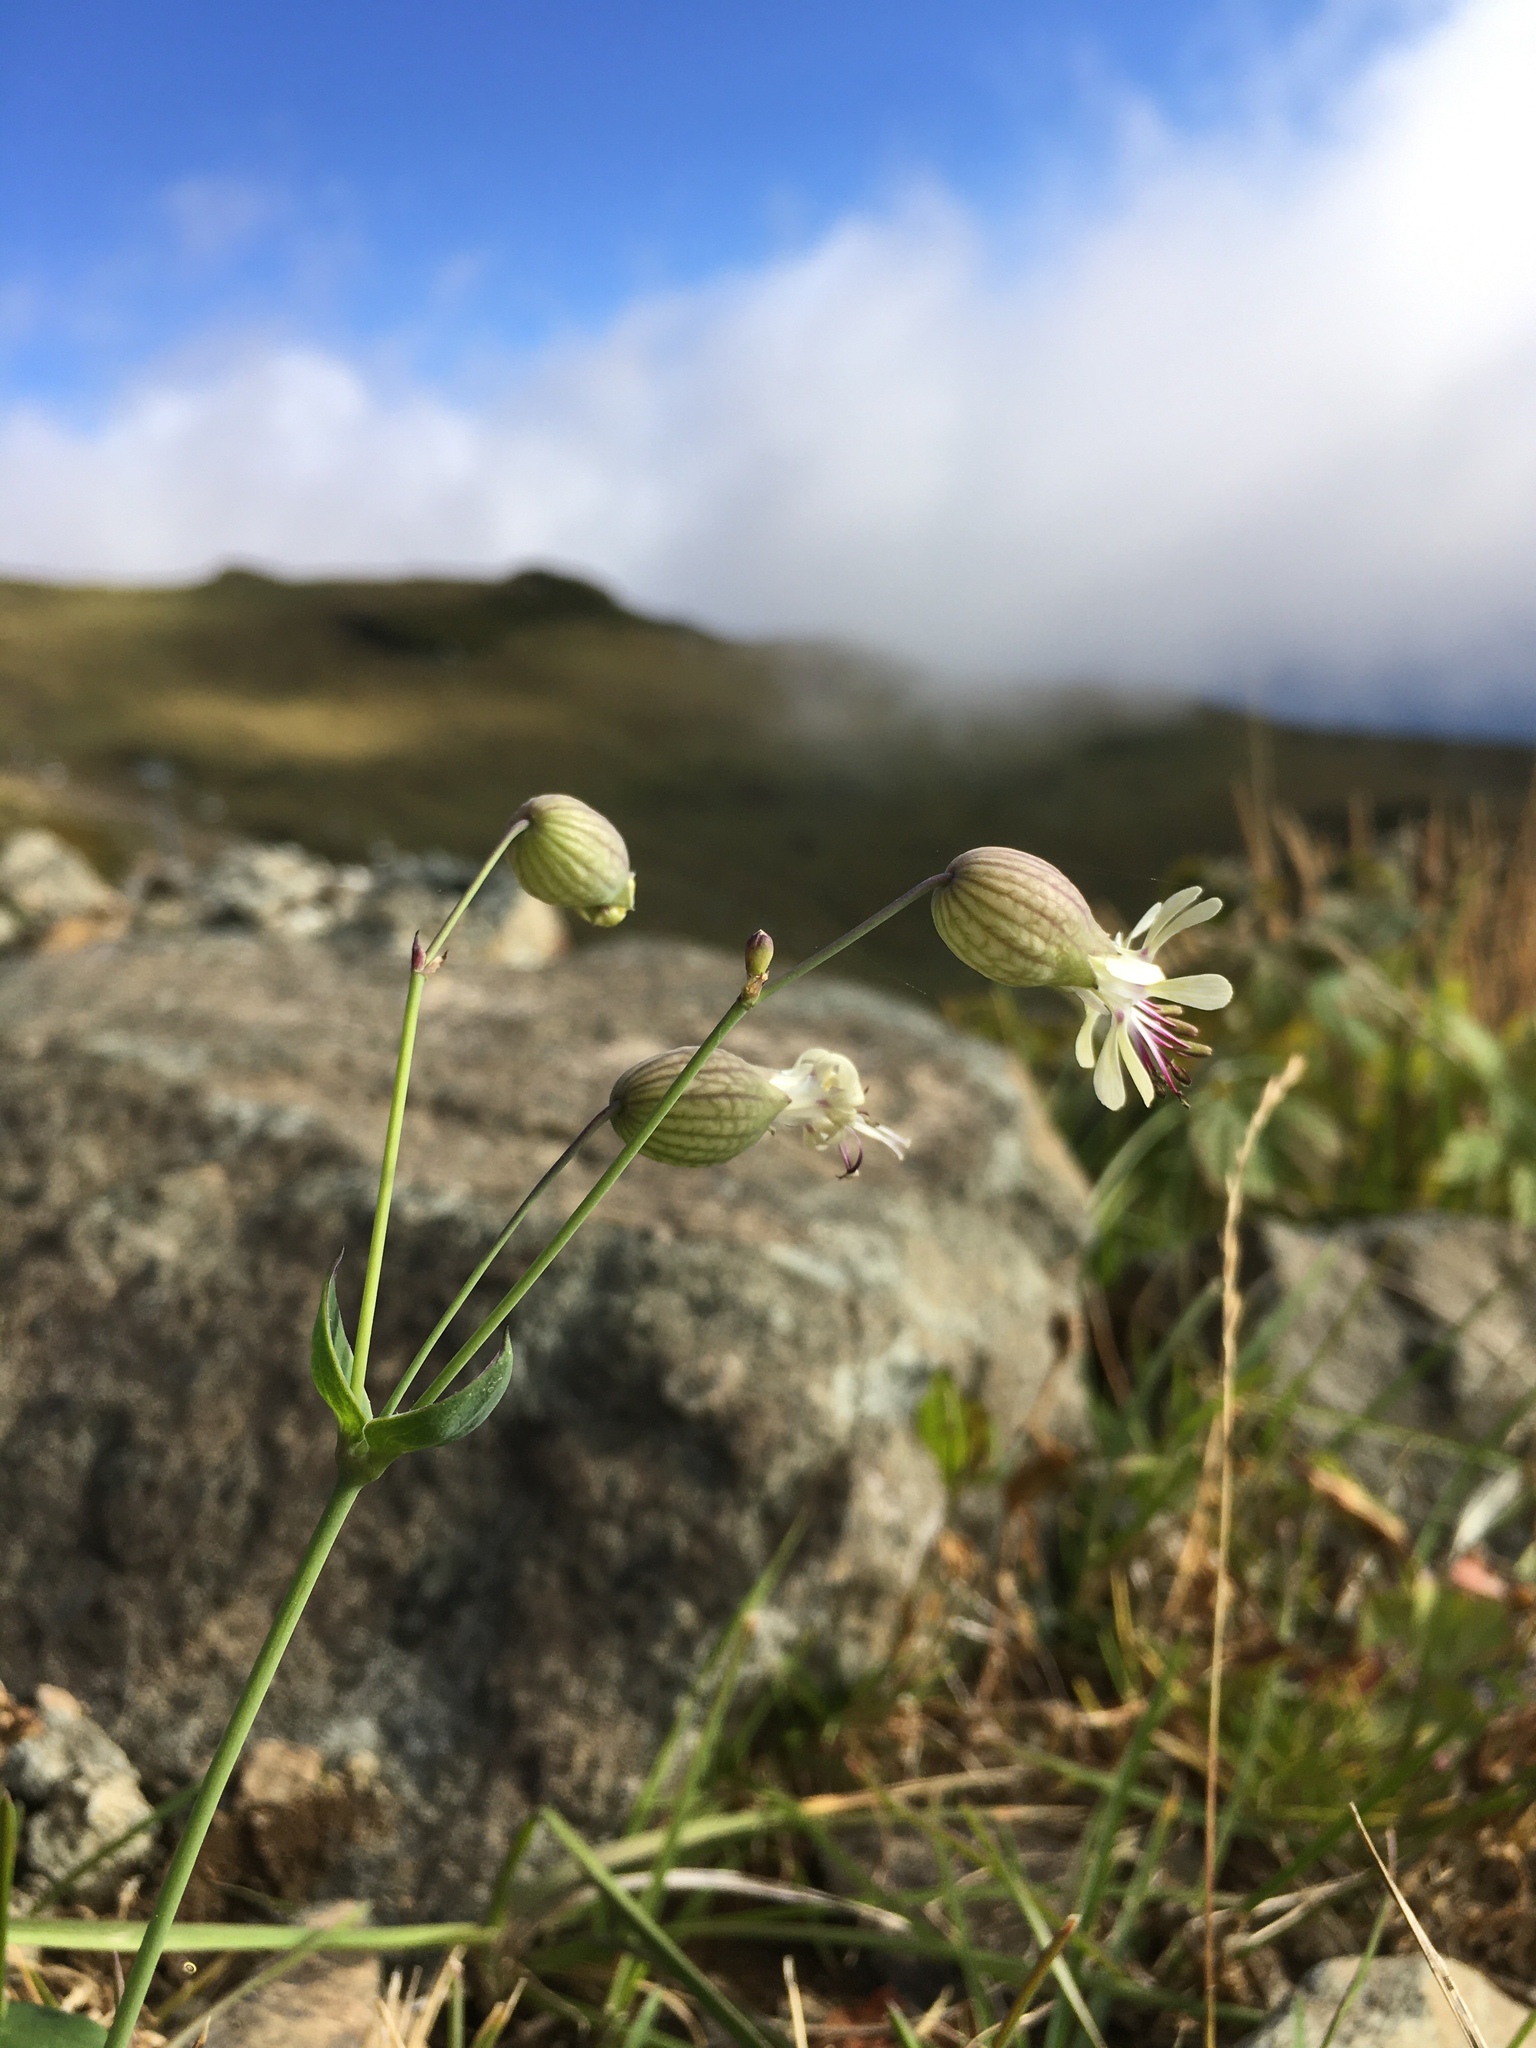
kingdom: Plantae
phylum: Tracheophyta
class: Magnoliopsida
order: Caryophyllales
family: Caryophyllaceae
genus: Silene
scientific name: Silene vulgaris
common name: Bladder campion
